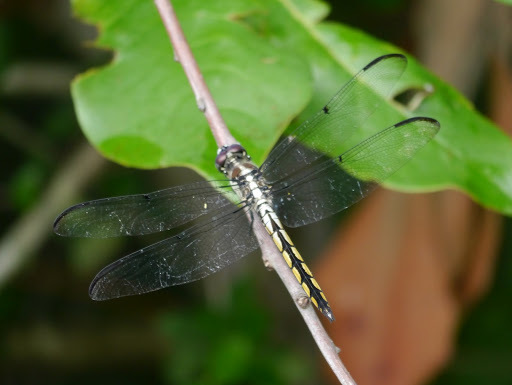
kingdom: Animalia
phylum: Arthropoda
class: Insecta
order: Odonata
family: Libellulidae
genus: Libellula
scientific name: Libellula vibrans
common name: Great blue skimmer
